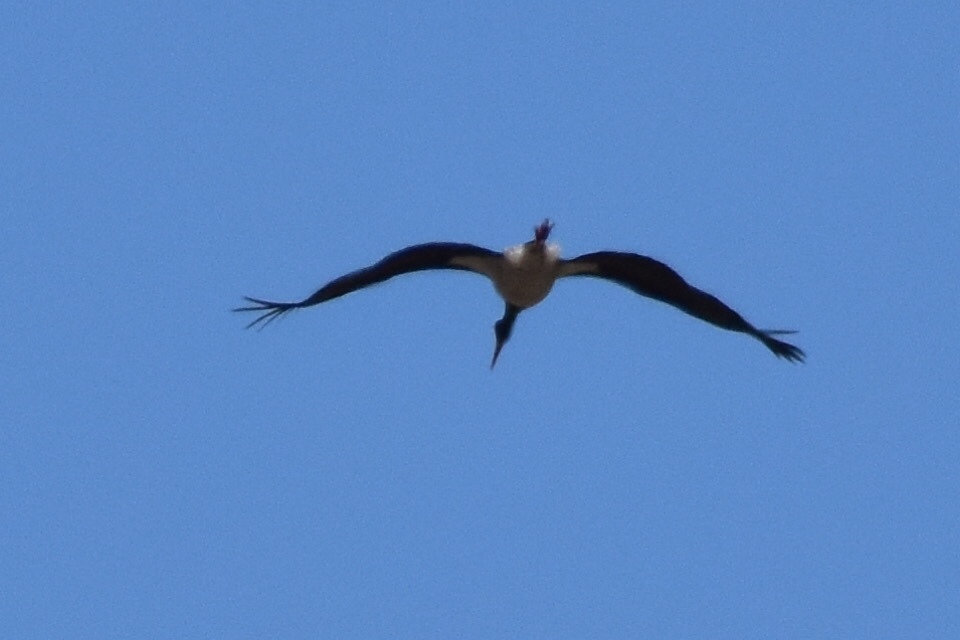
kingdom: Animalia
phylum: Chordata
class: Aves
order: Ciconiiformes
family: Ciconiidae
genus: Ciconia
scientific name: Ciconia nigra
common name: Black stork
